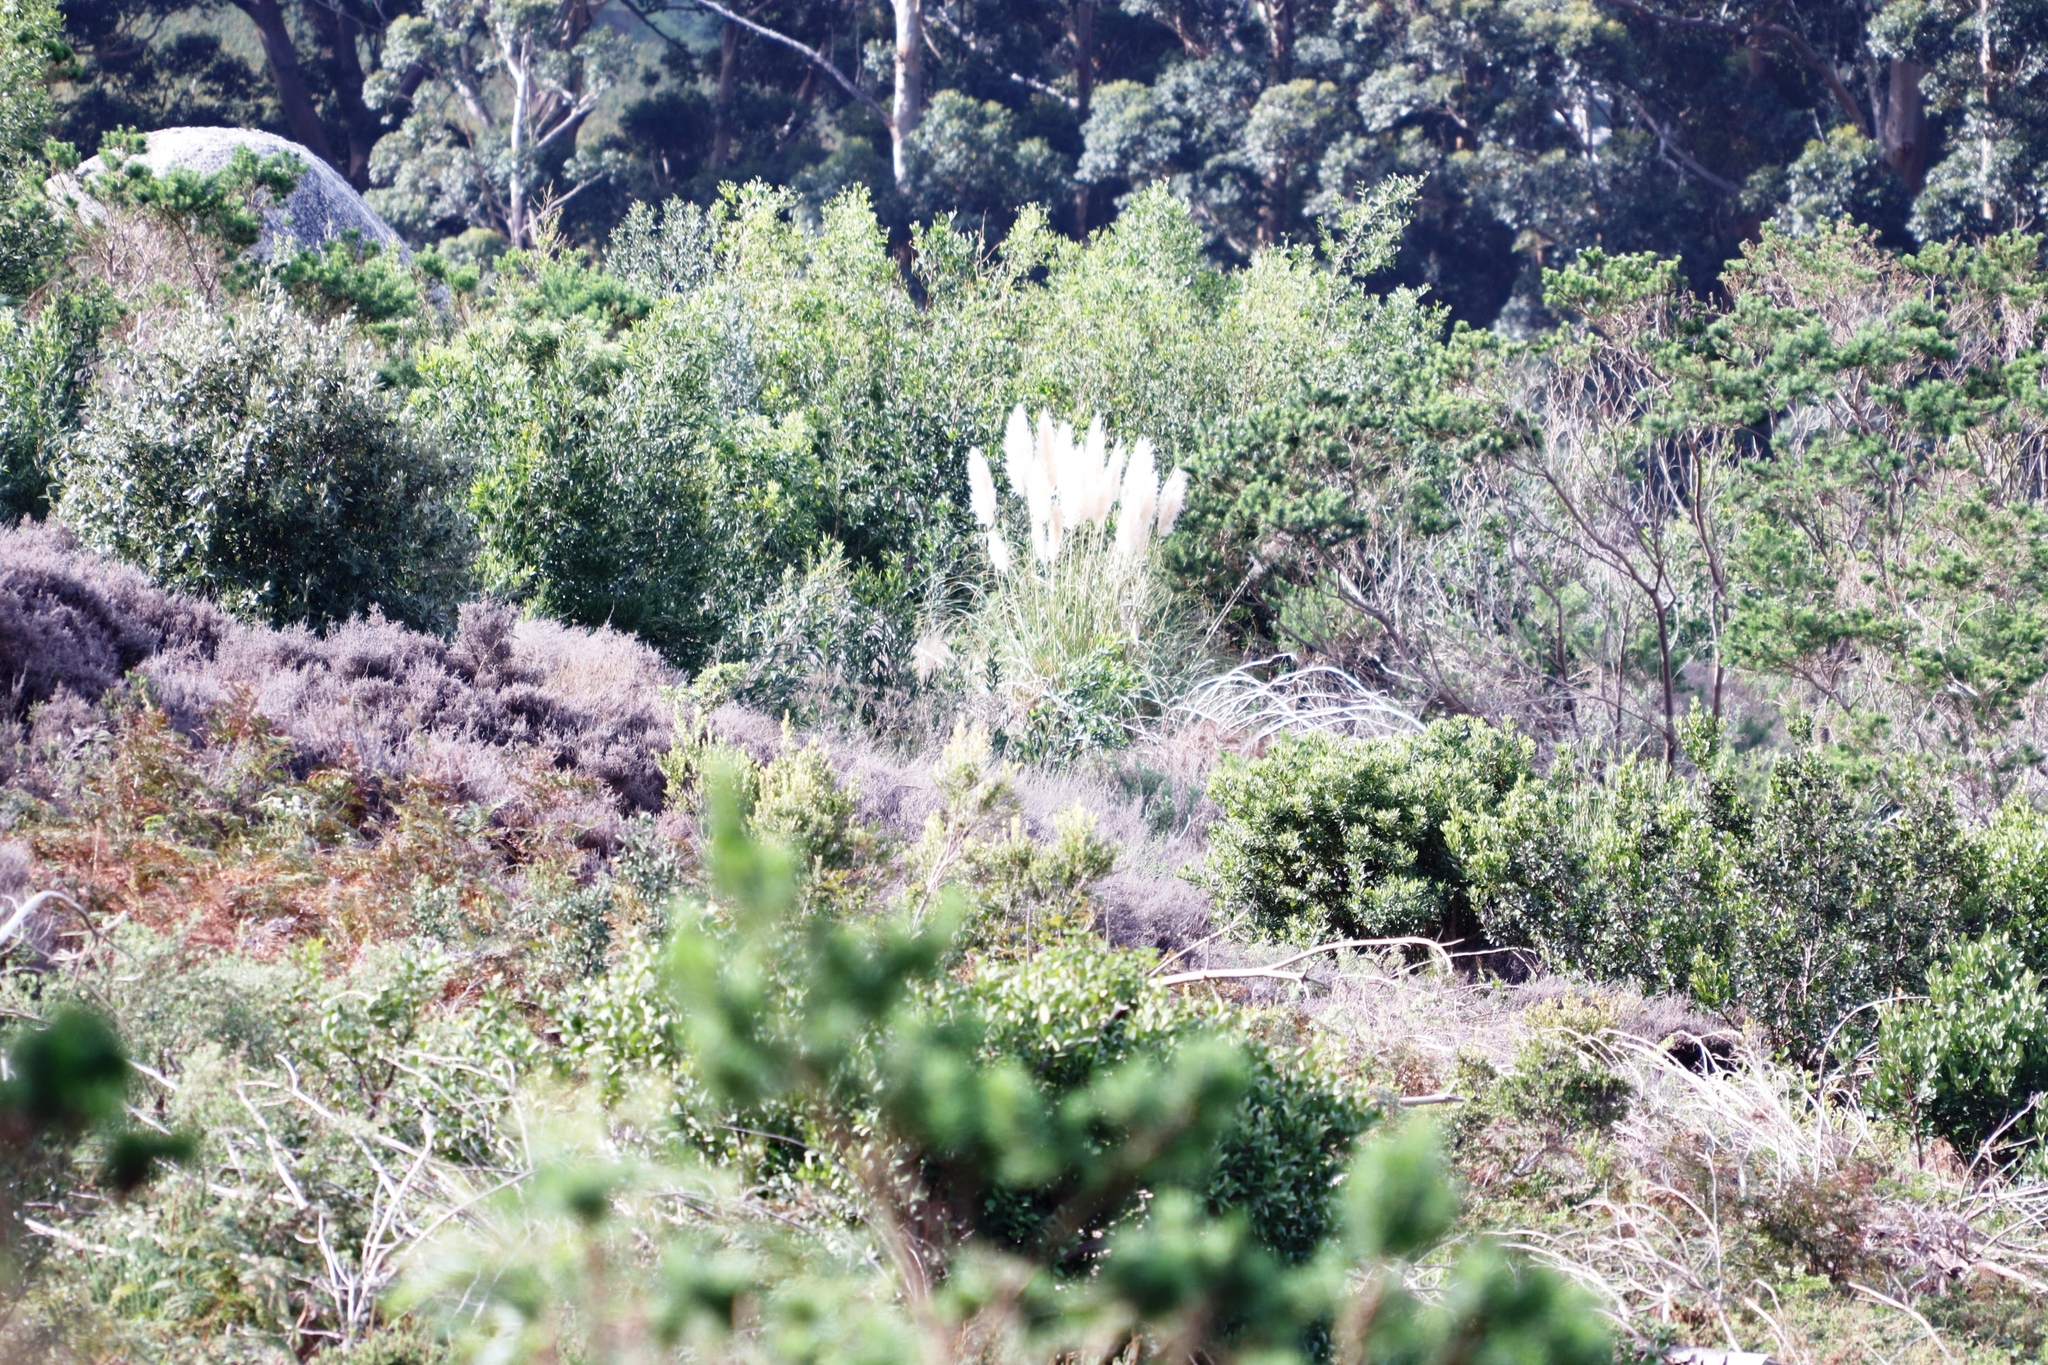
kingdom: Plantae
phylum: Tracheophyta
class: Liliopsida
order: Poales
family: Poaceae
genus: Cortaderia
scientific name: Cortaderia selloana
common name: Uruguayan pampas grass
